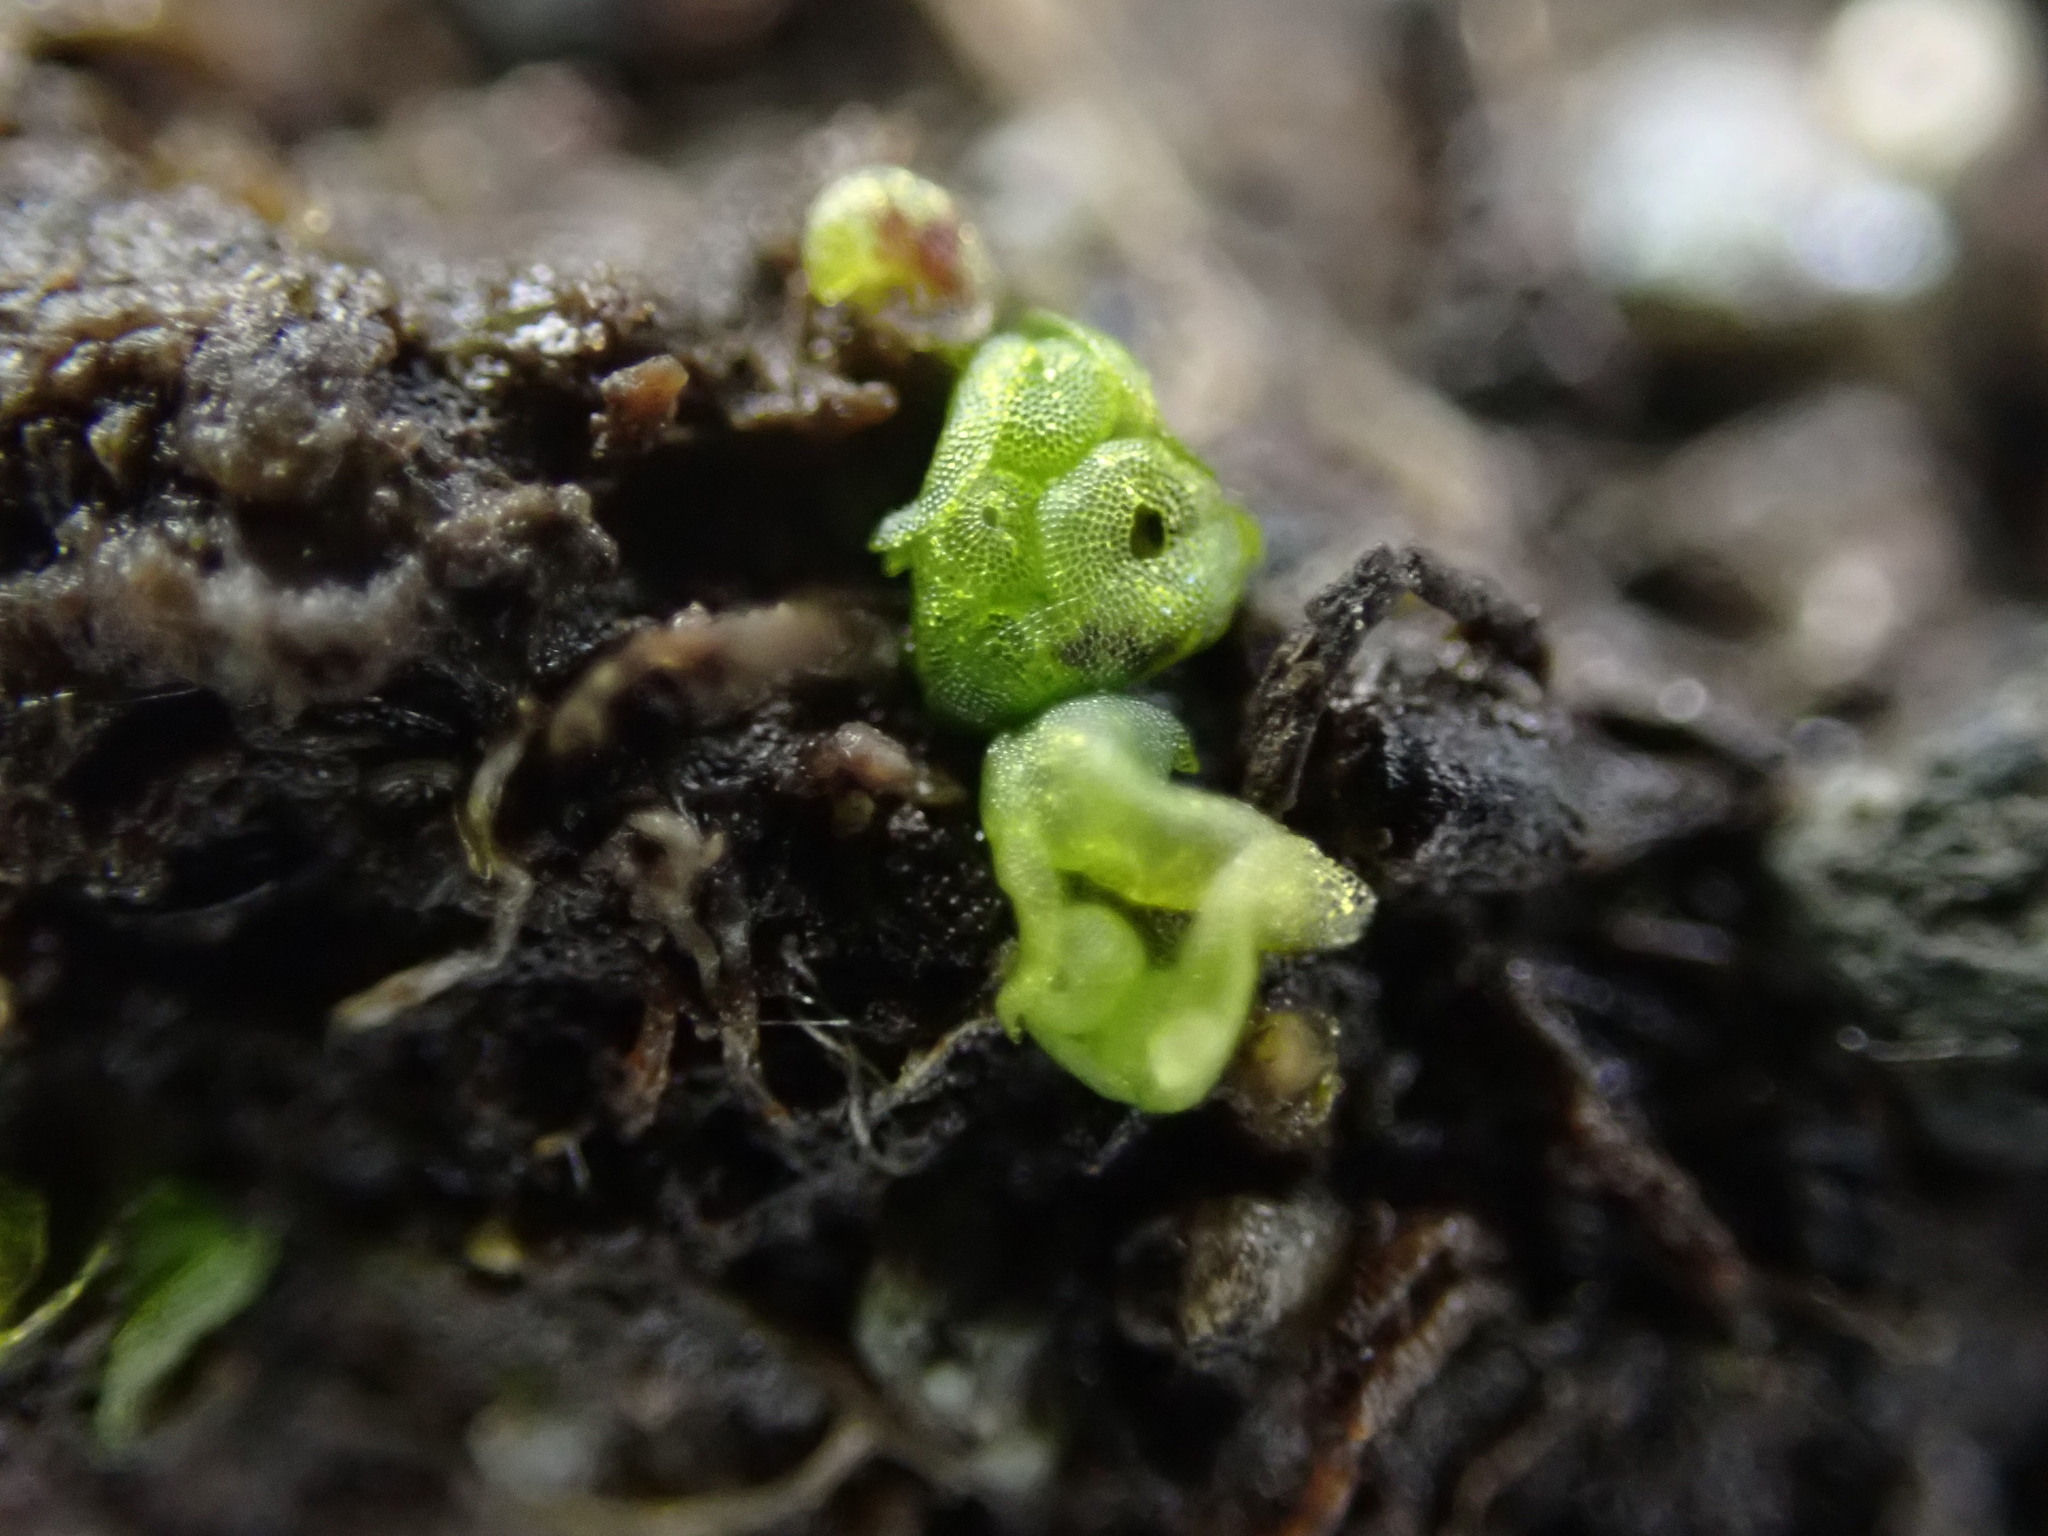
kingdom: Plantae
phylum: Marchantiophyta
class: Marchantiopsida
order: Sphaerocarpales
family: Sphaerocarpaceae
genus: Sphaerocarpos
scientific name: Sphaerocarpos texanus
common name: Texas balloonwort
